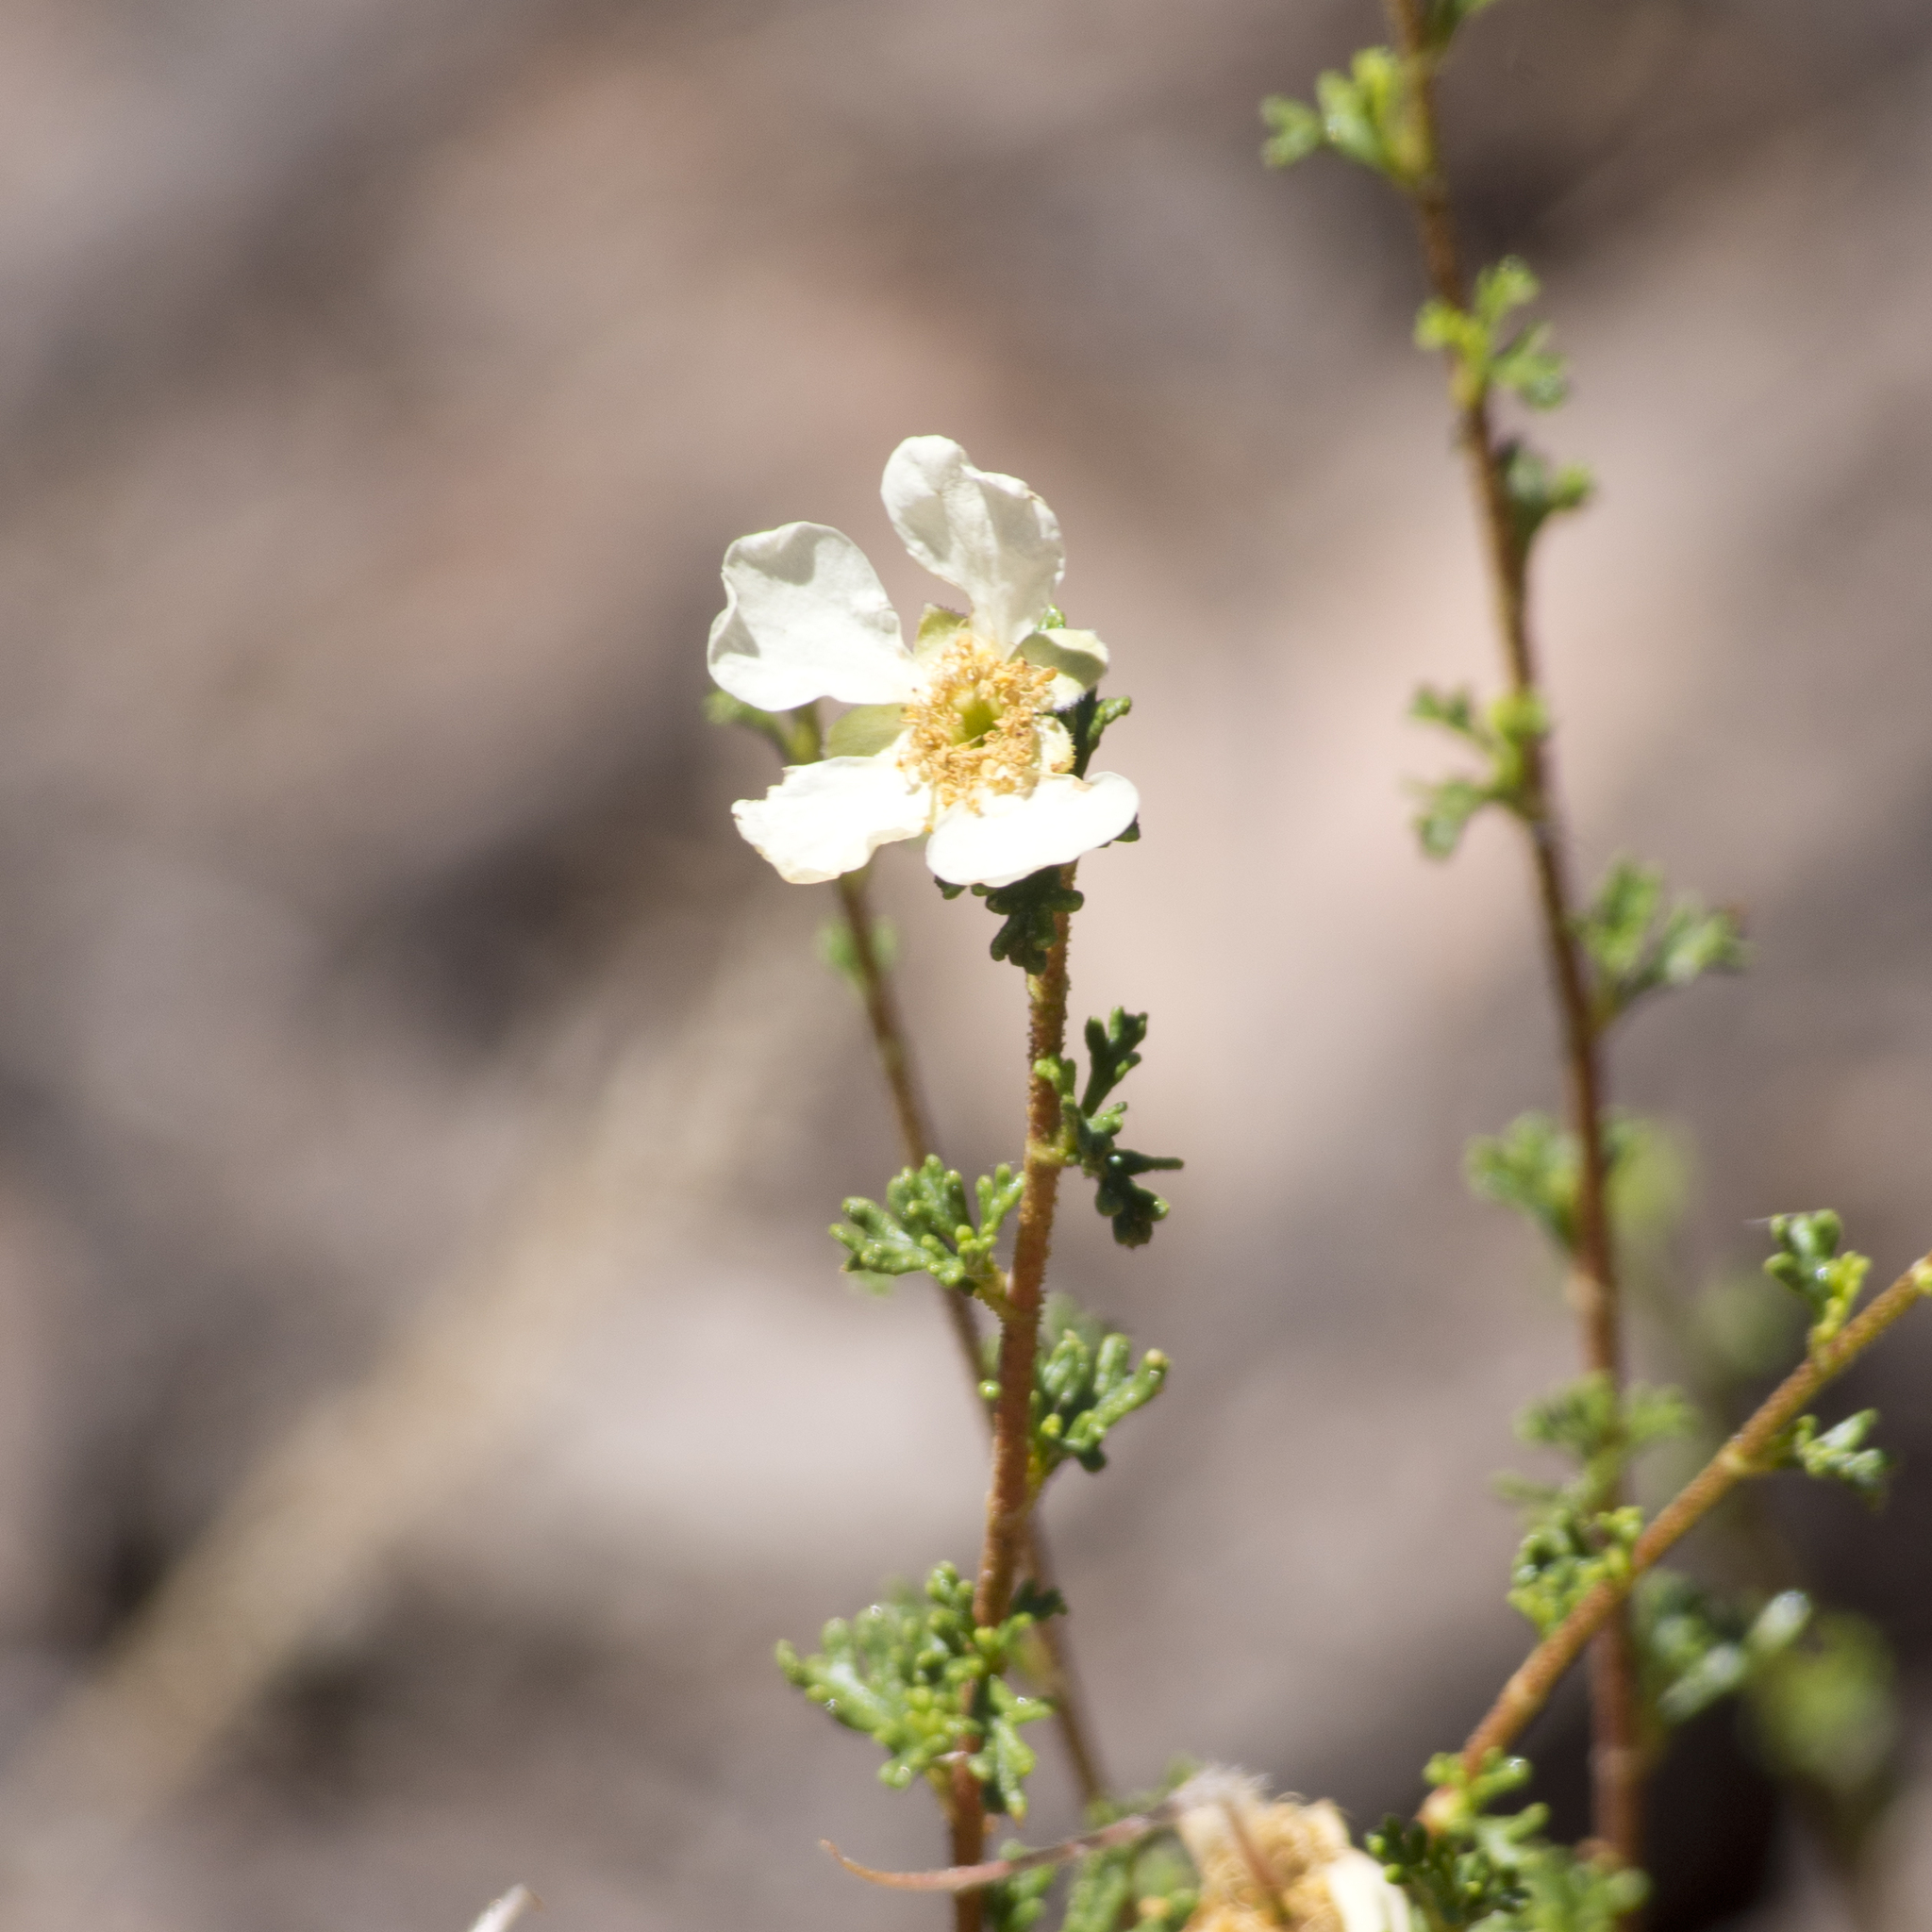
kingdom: Plantae
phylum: Tracheophyta
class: Magnoliopsida
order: Rosales
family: Rosaceae
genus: Purshia
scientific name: Purshia stansburiana
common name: Stansbury's cliffrose
